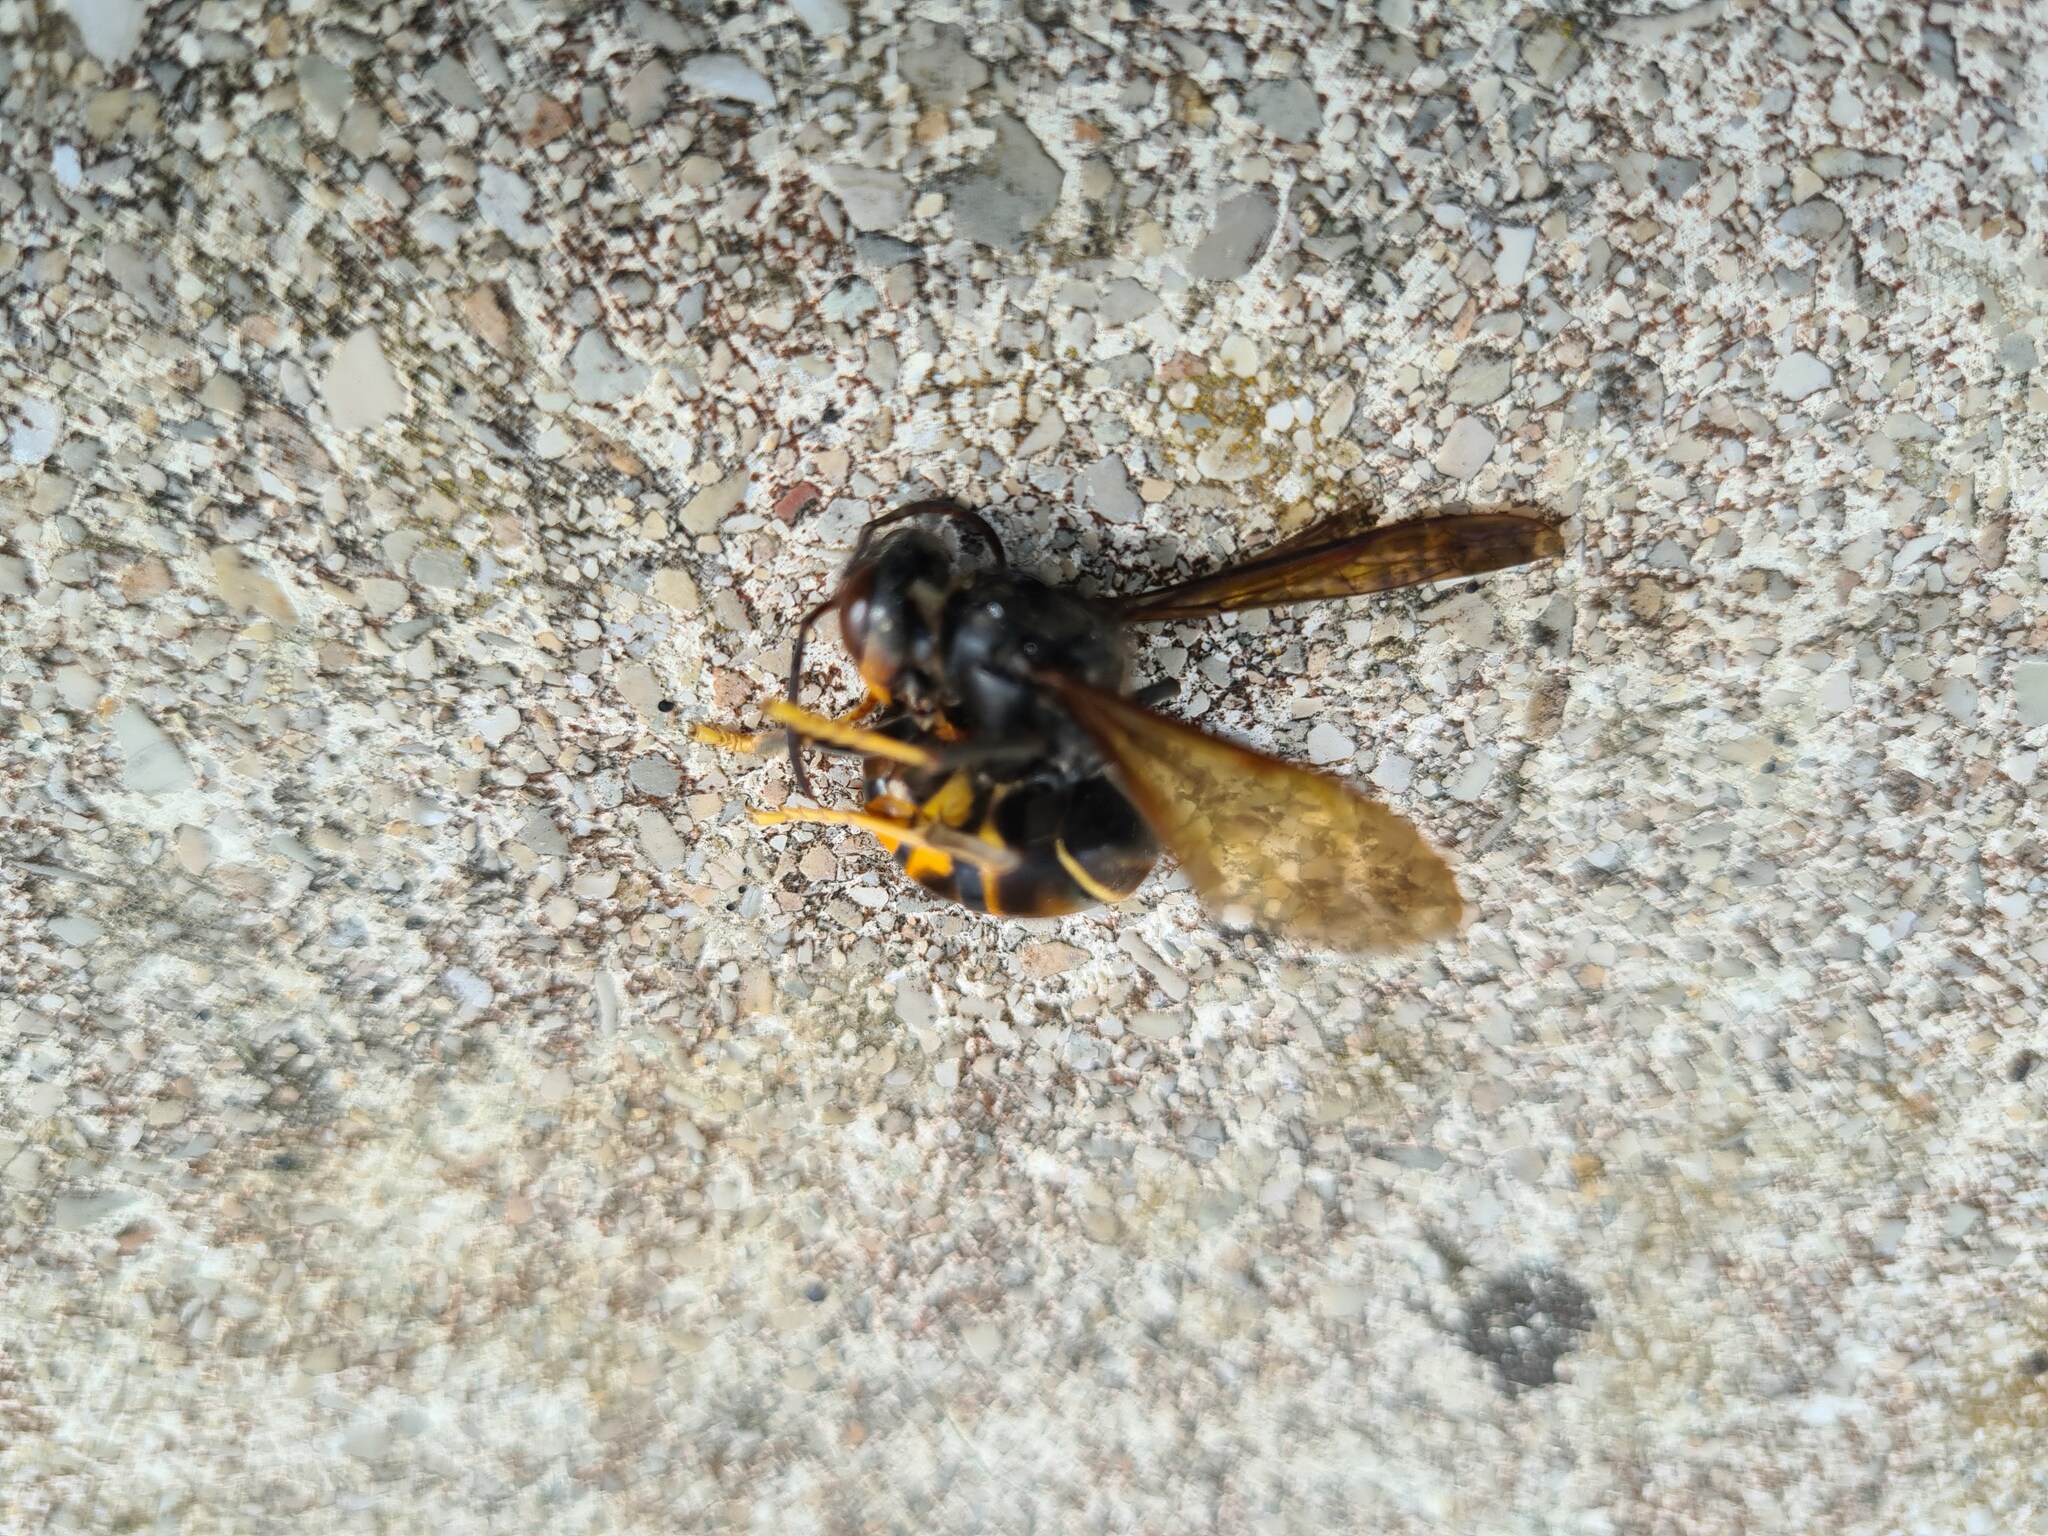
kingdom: Animalia
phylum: Arthropoda
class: Insecta
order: Hymenoptera
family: Vespidae
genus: Vespa
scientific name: Vespa velutina
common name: Asian hornet
